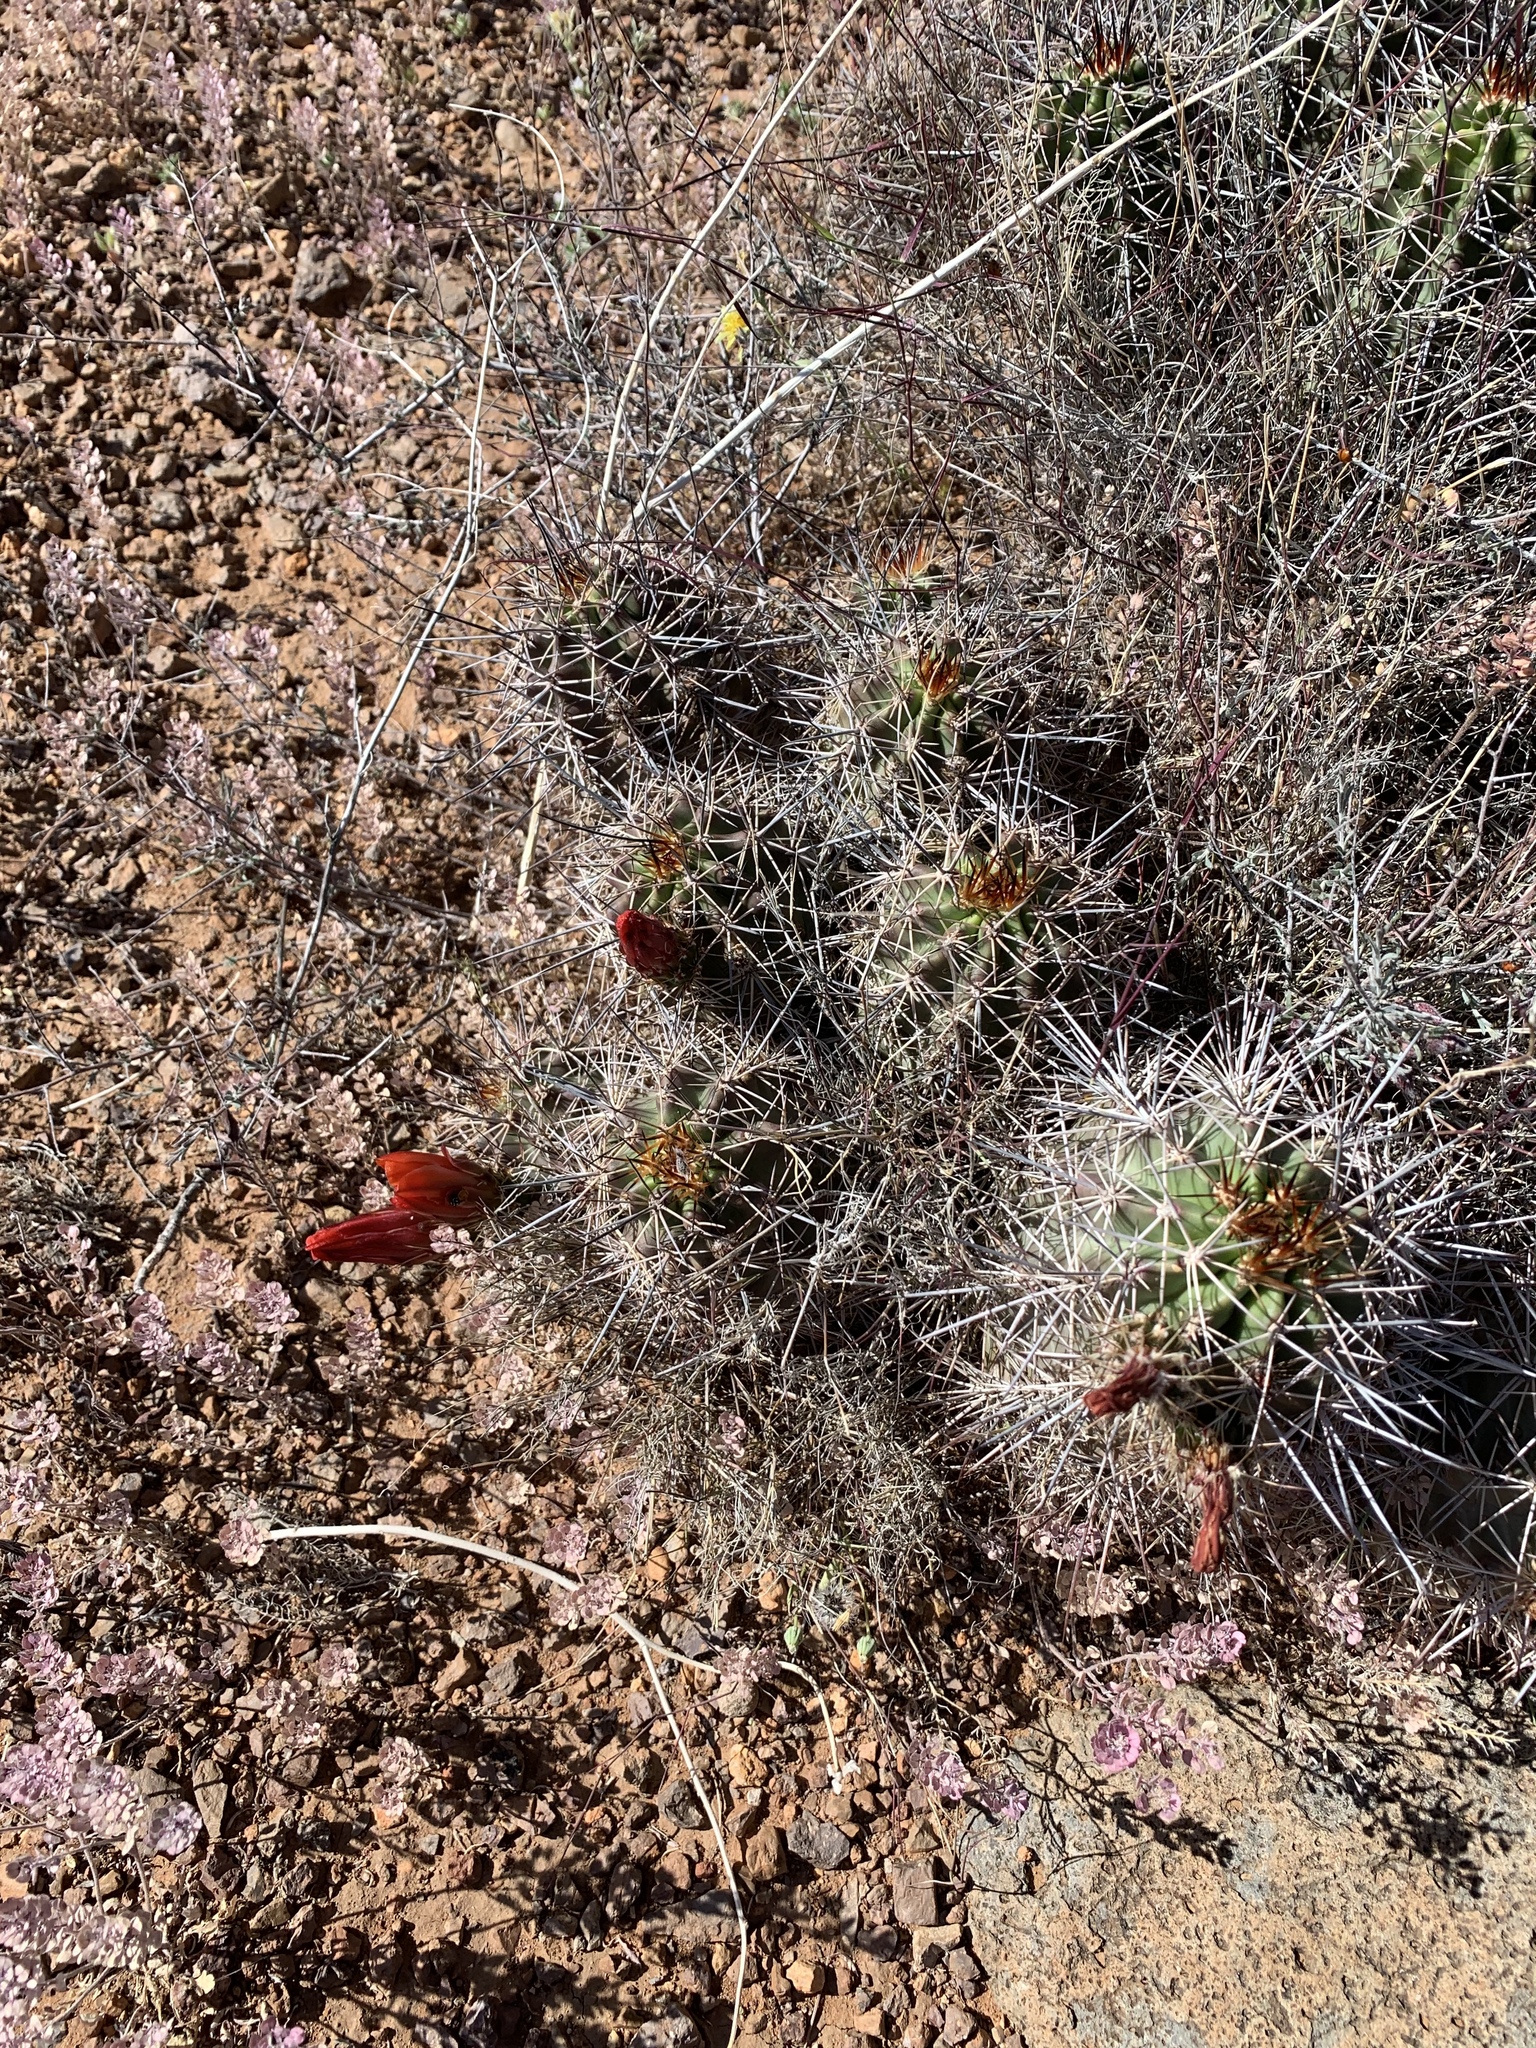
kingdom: Plantae
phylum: Tracheophyta
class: Magnoliopsida
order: Caryophyllales
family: Cactaceae
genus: Echinocereus
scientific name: Echinocereus coccineus
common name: Scarlet hedgehog cactus
